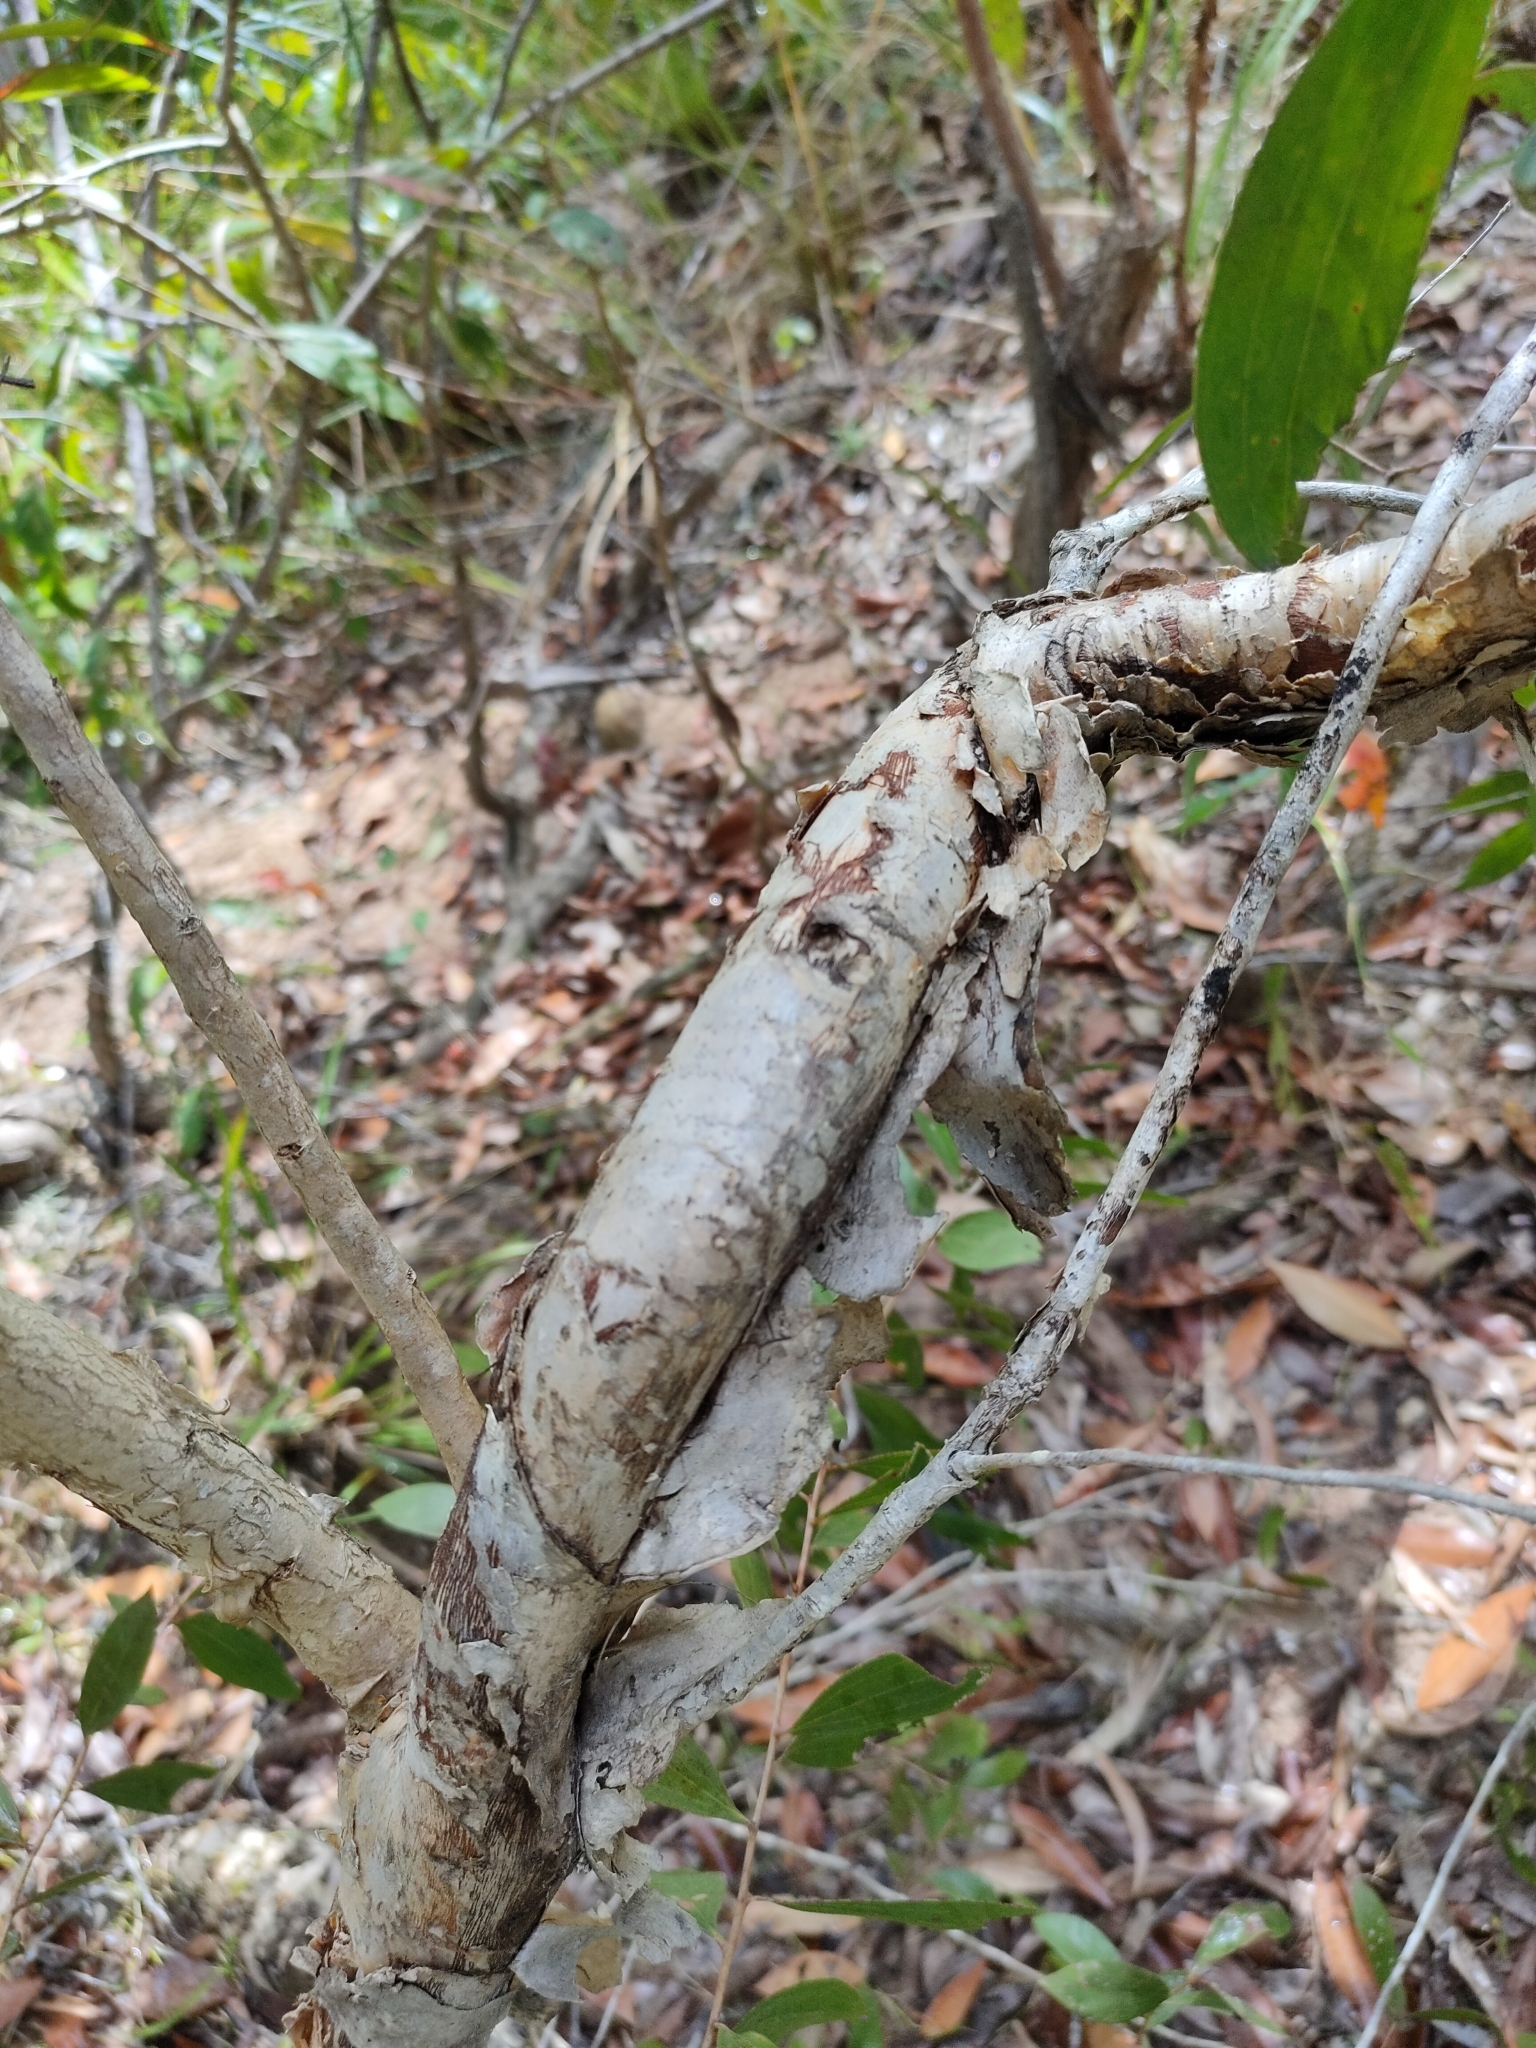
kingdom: Plantae
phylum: Tracheophyta
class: Magnoliopsida
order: Myrtales
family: Myrtaceae
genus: Melaleuca
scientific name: Melaleuca quinquenervia
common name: Punktree
